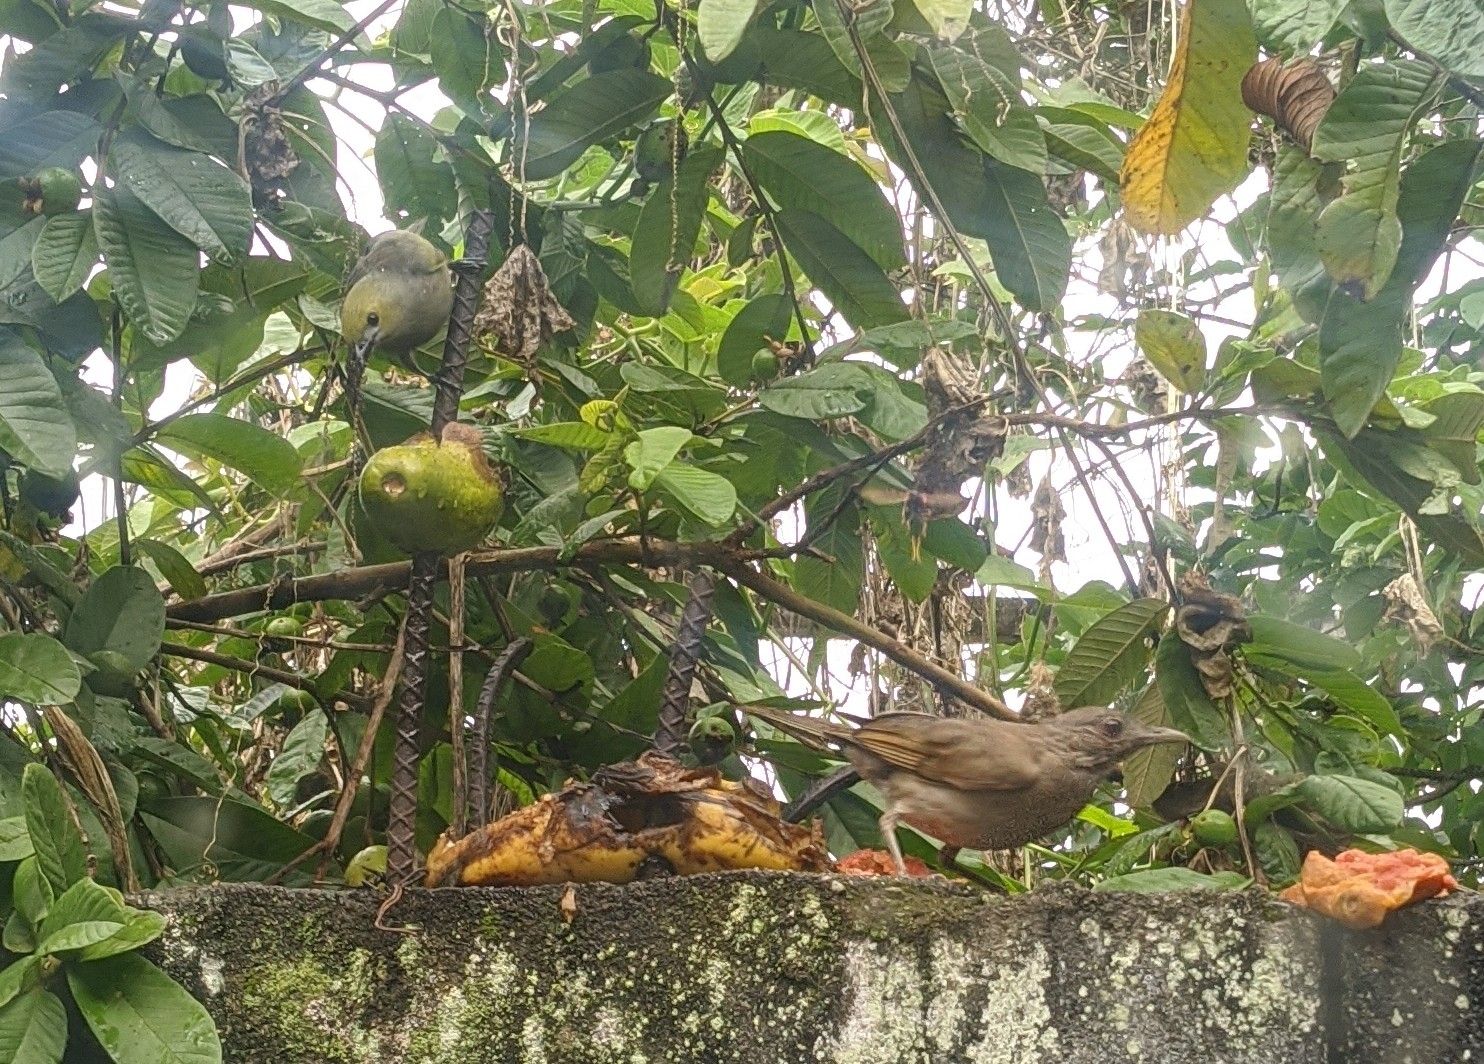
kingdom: Animalia
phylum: Chordata
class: Aves
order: Passeriformes
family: Thraupidae
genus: Thraupis
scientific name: Thraupis palmarum
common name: Palm tanager
